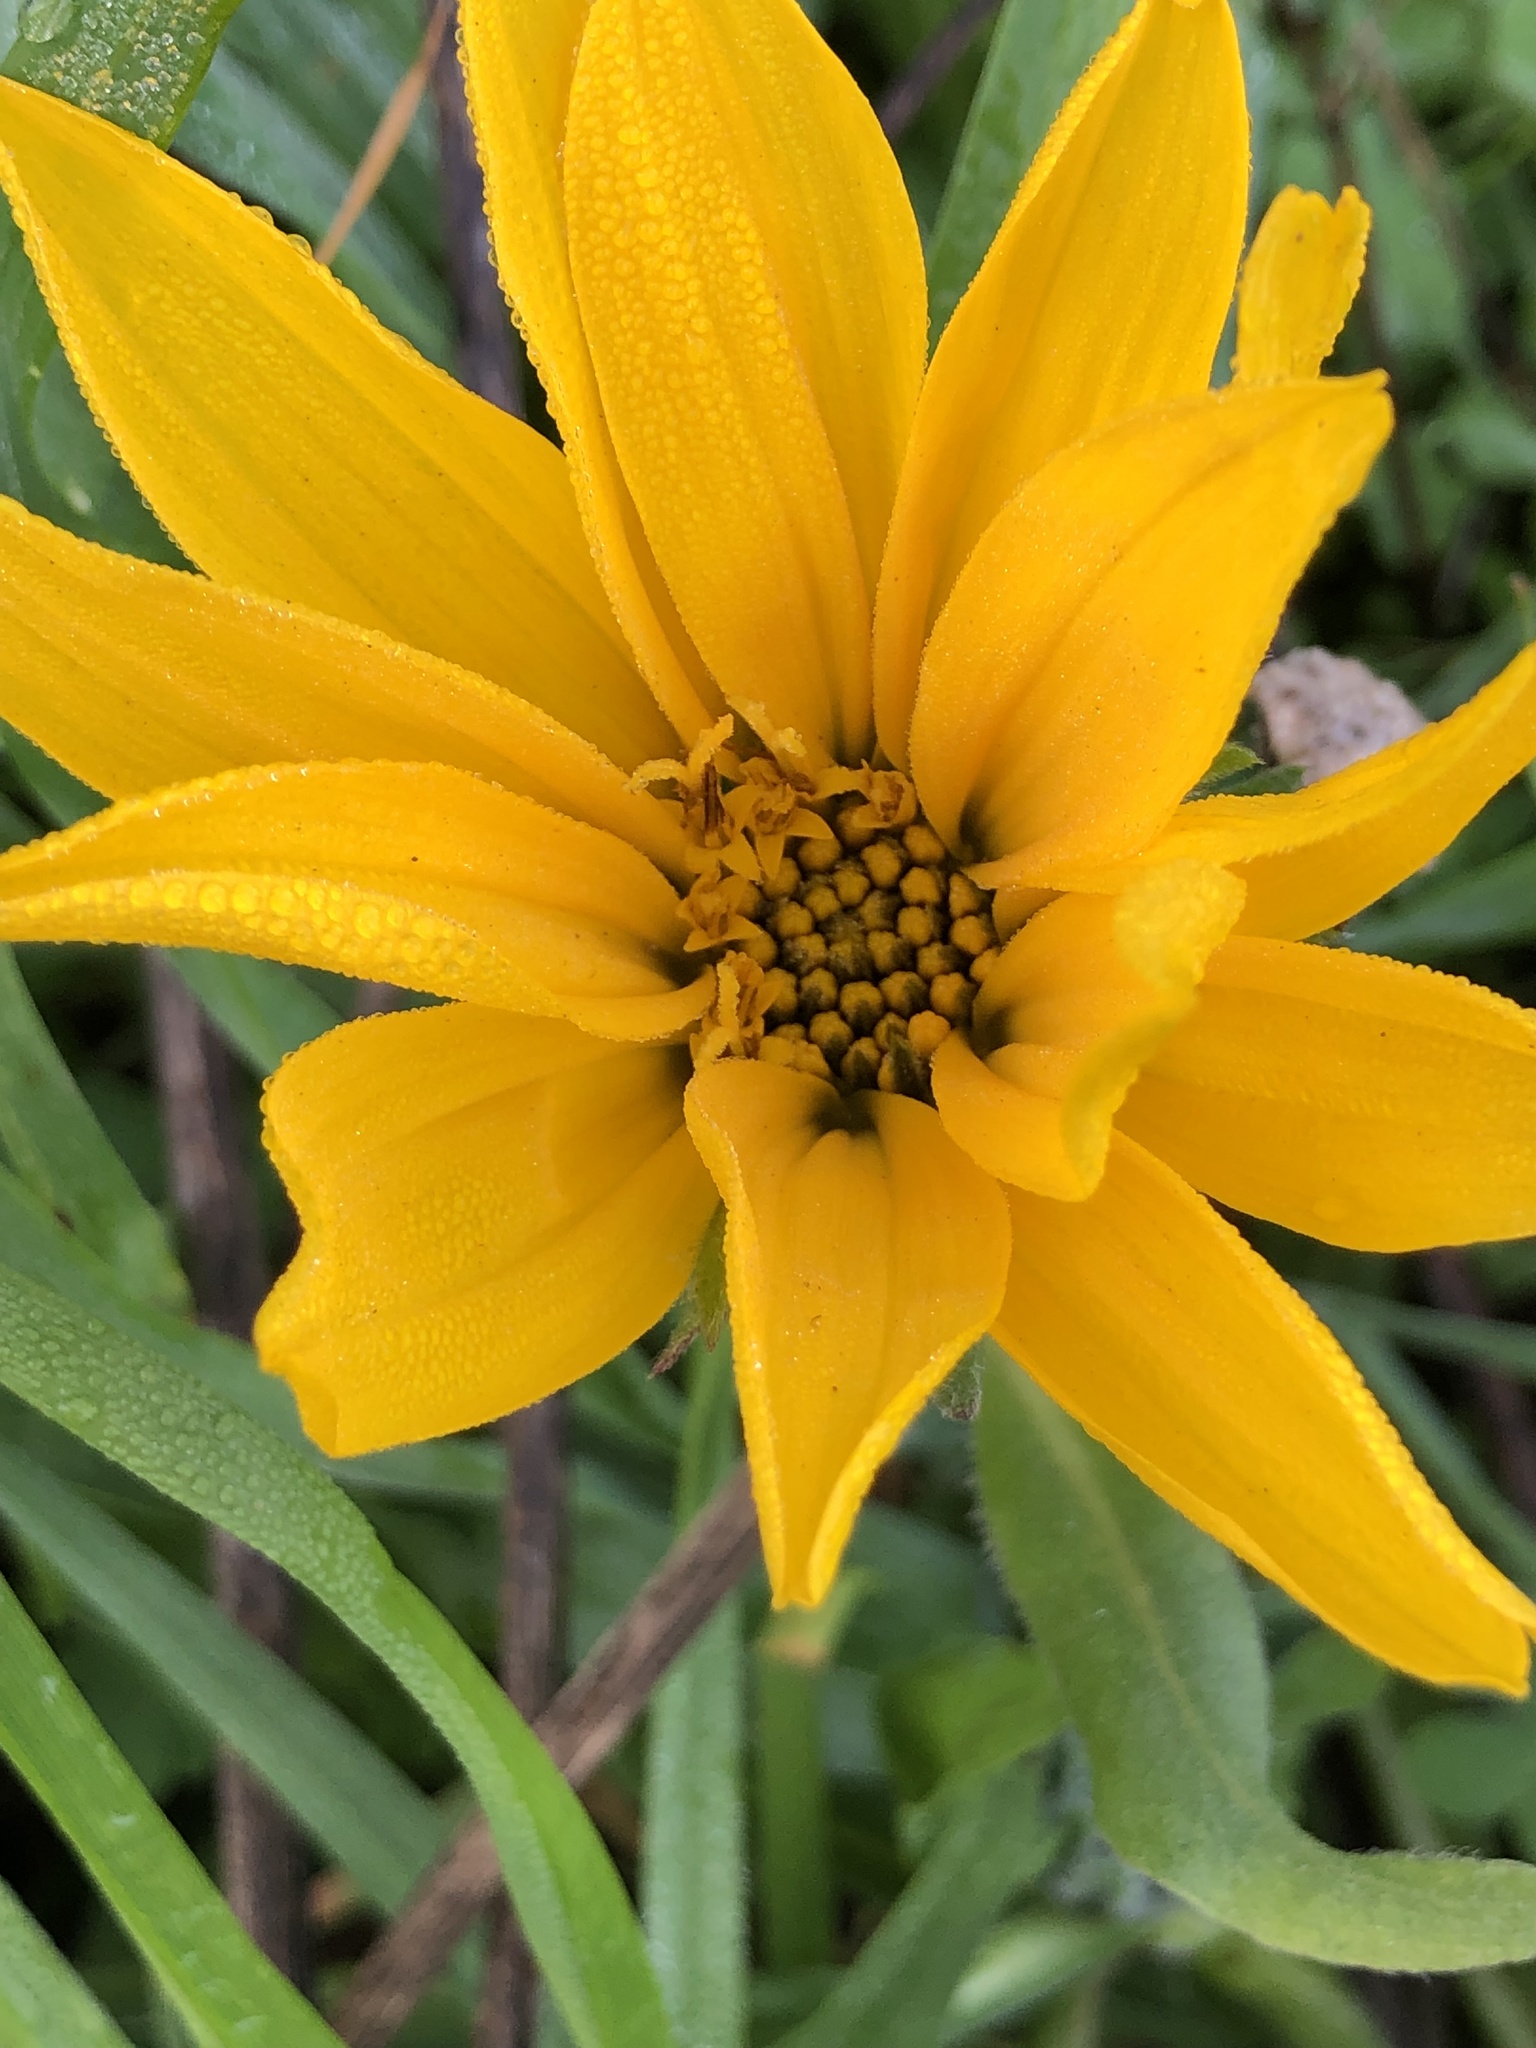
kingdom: Plantae
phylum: Tracheophyta
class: Magnoliopsida
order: Asterales
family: Asteraceae
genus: Wyethia
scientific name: Wyethia angustifolia
